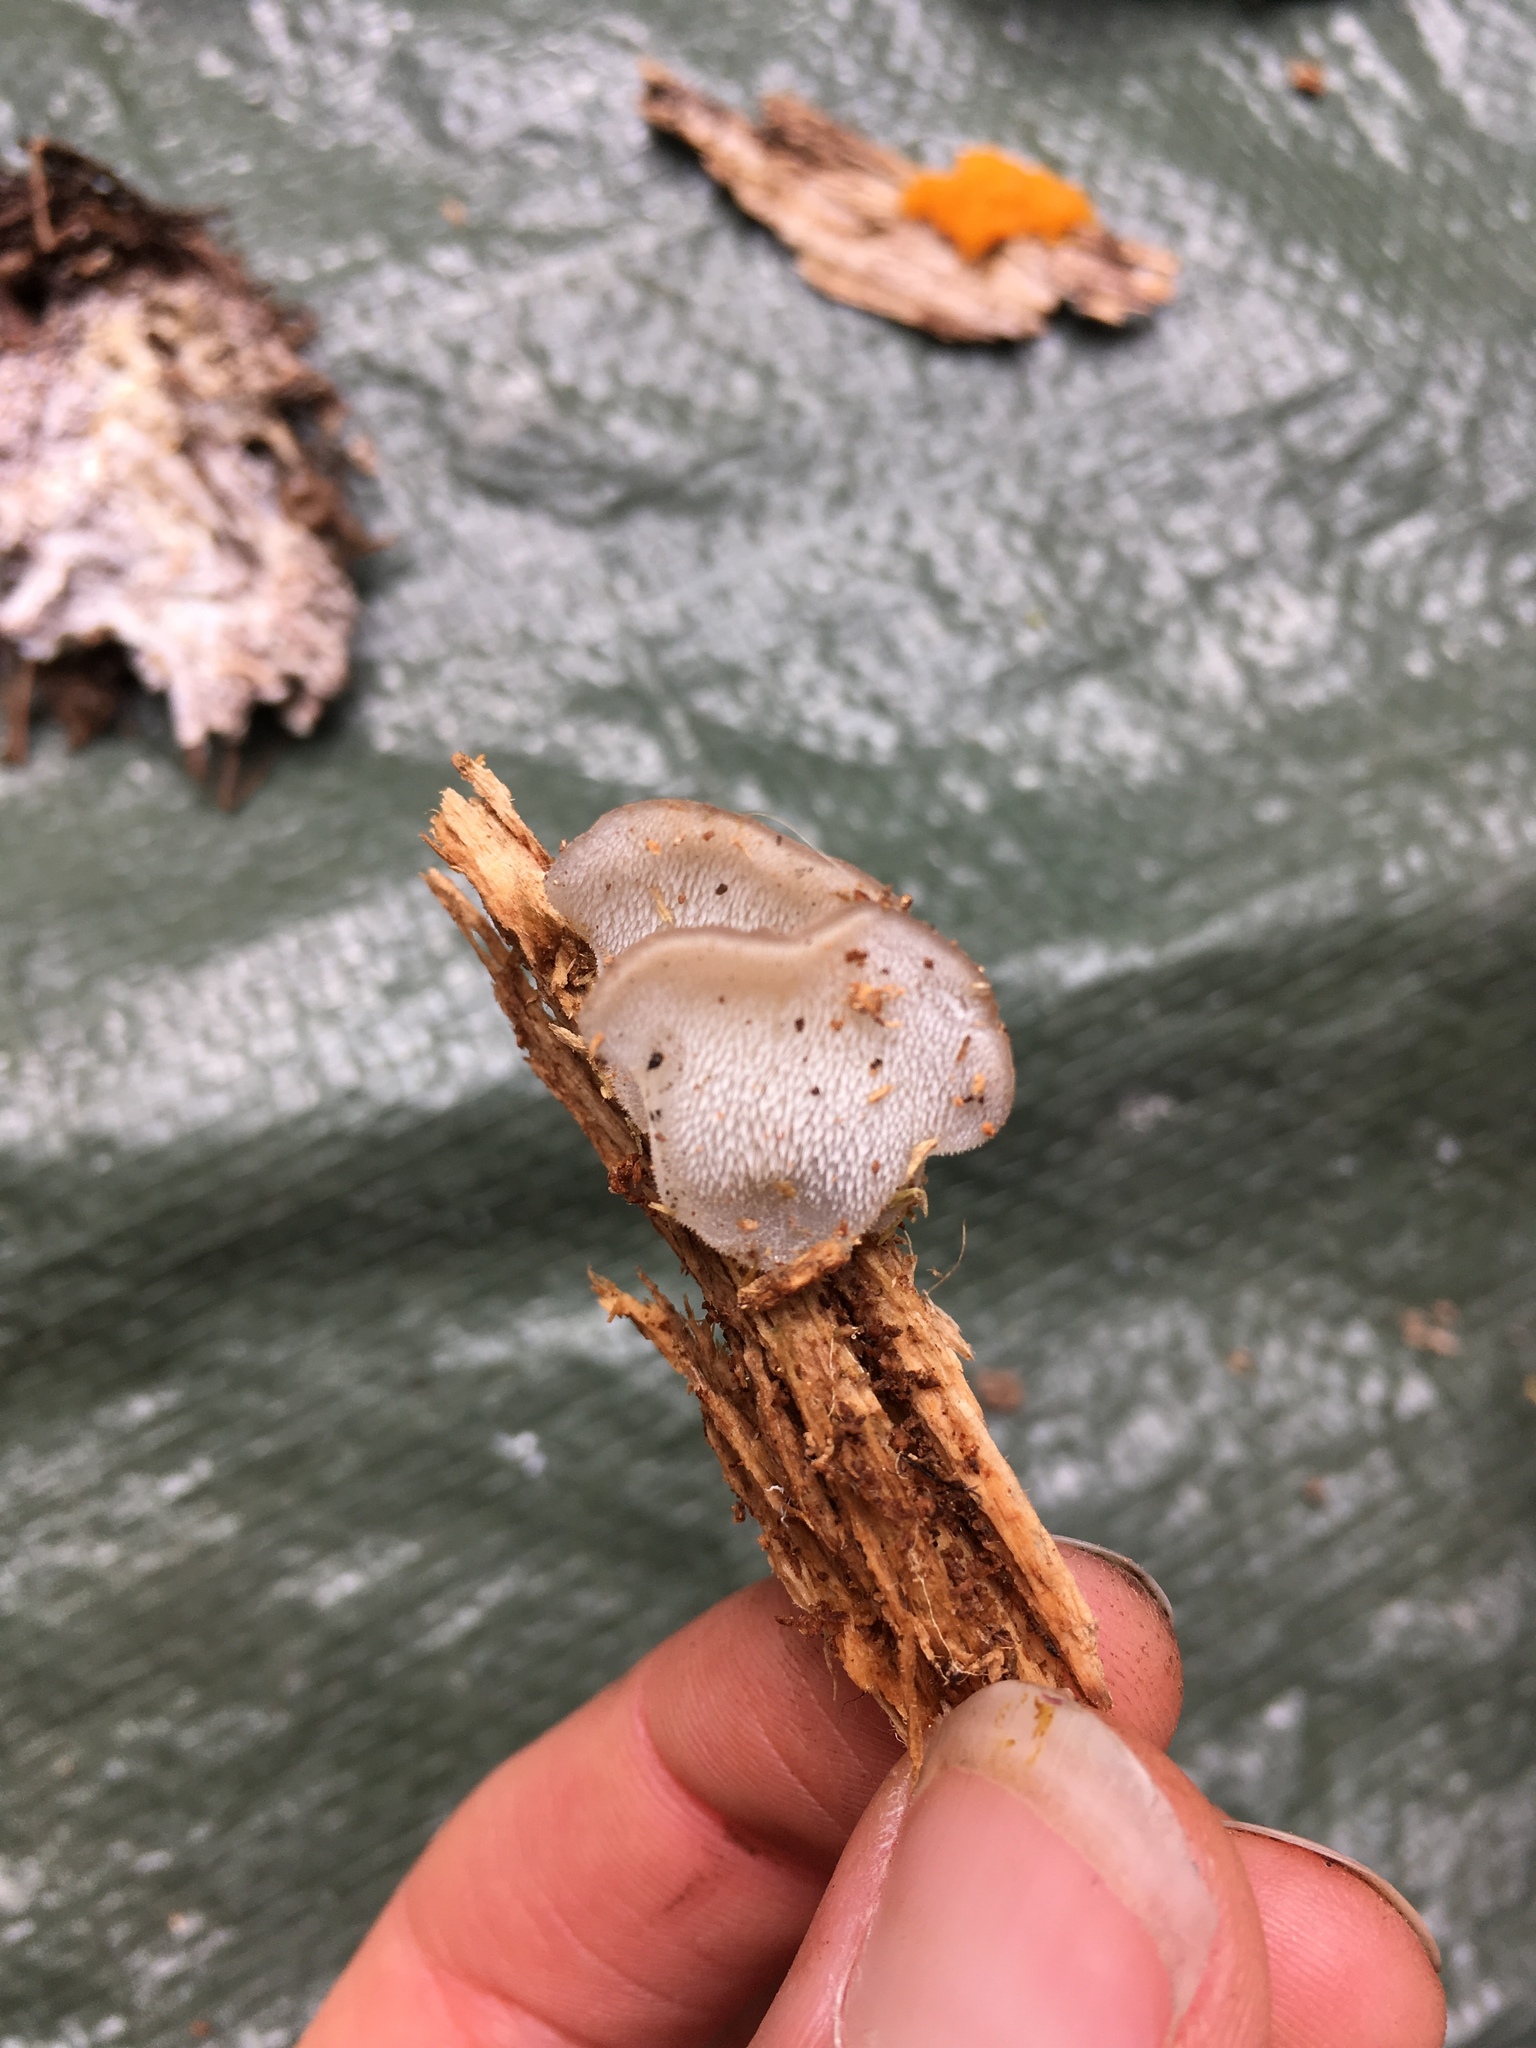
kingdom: Fungi
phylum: Basidiomycota
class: Agaricomycetes
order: Auriculariales
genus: Pseudohydnum
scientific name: Pseudohydnum gelatinosum
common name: Jelly tongue
